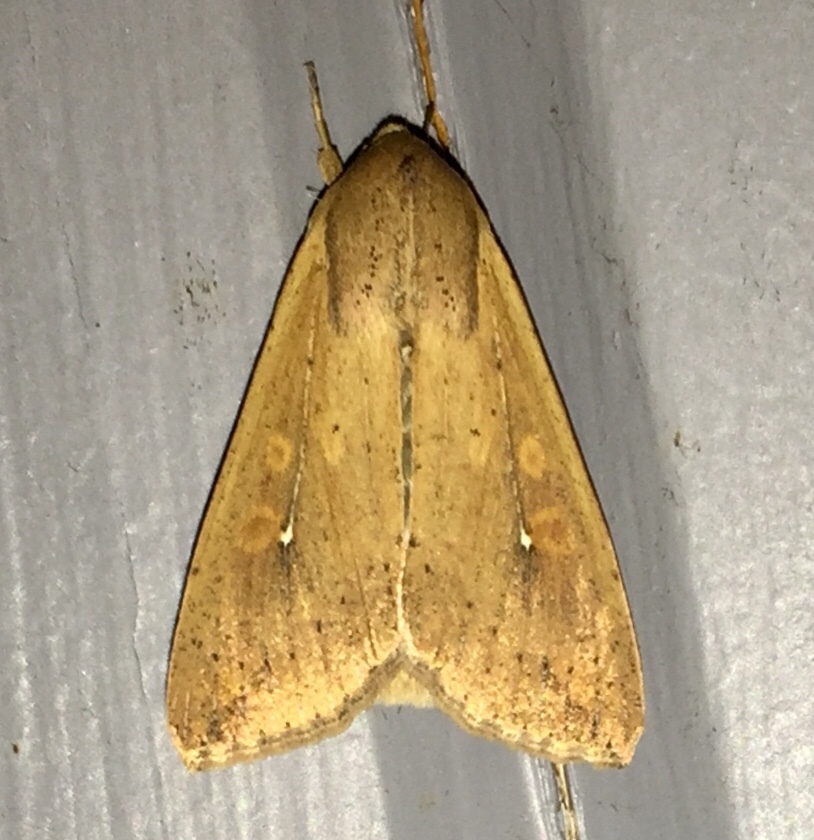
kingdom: Animalia
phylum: Arthropoda
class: Insecta
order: Lepidoptera
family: Noctuidae
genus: Mythimna
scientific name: Mythimna unipuncta
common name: White-speck
